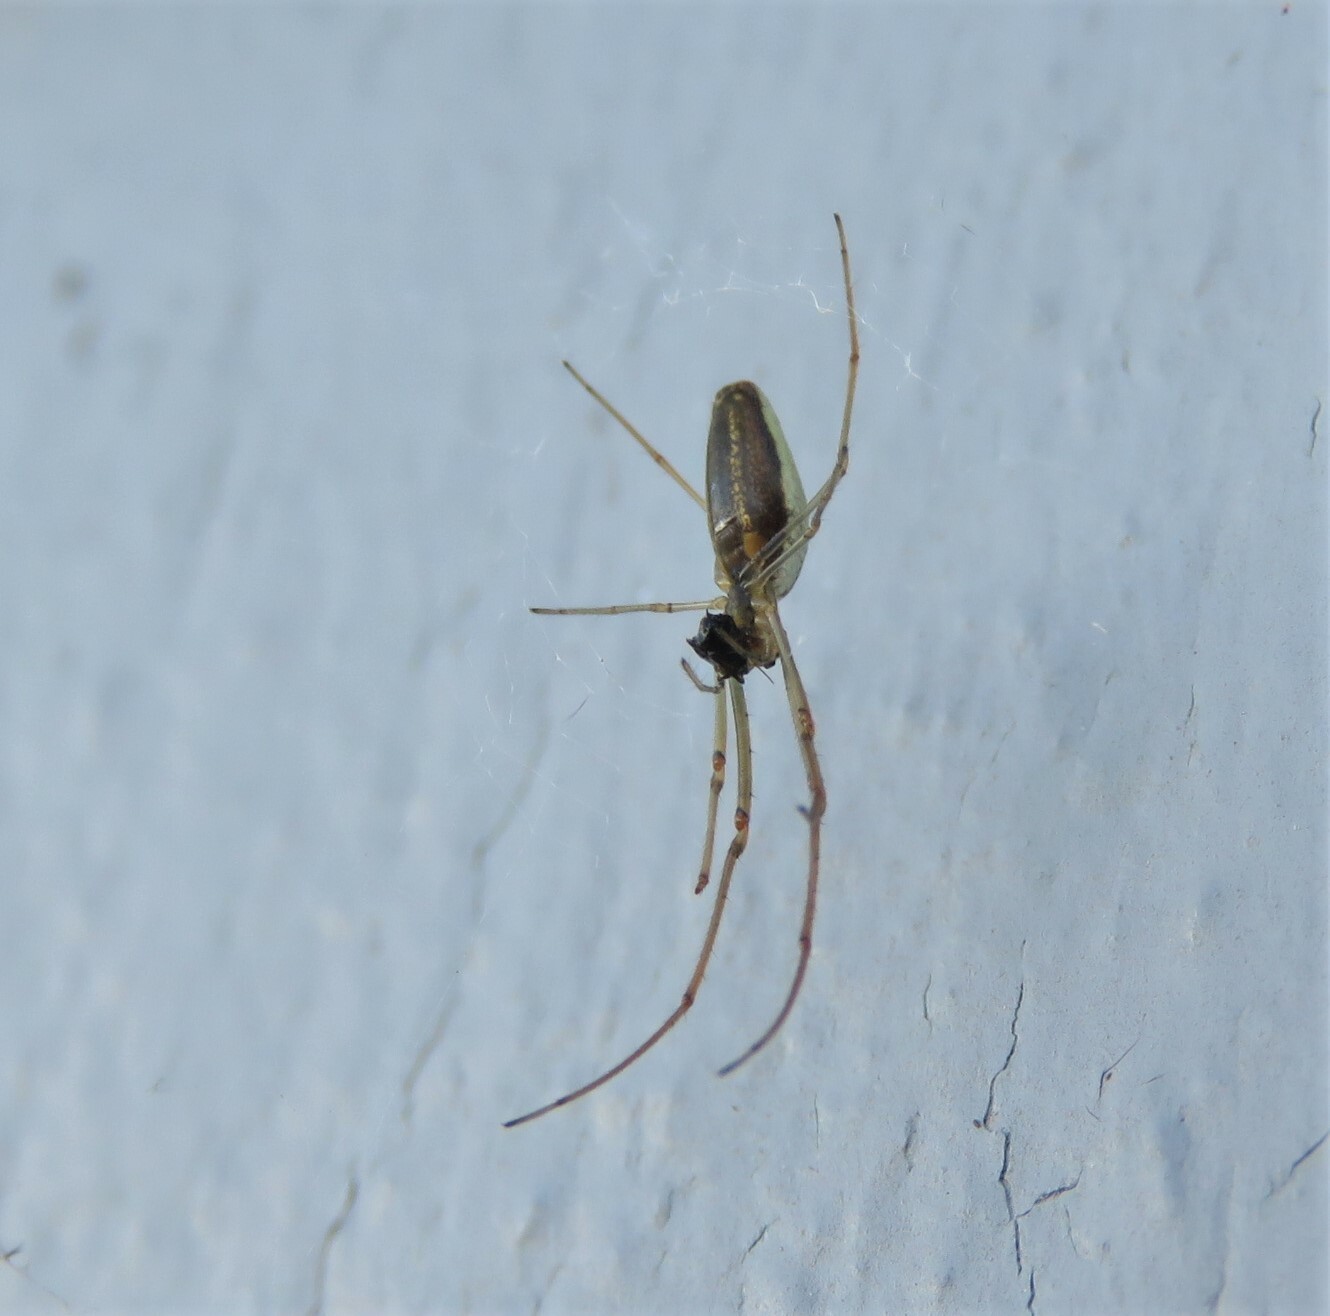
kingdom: Animalia
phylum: Arthropoda
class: Arachnida
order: Araneae
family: Tetragnathidae
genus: Tetragnatha
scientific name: Tetragnatha extensa
